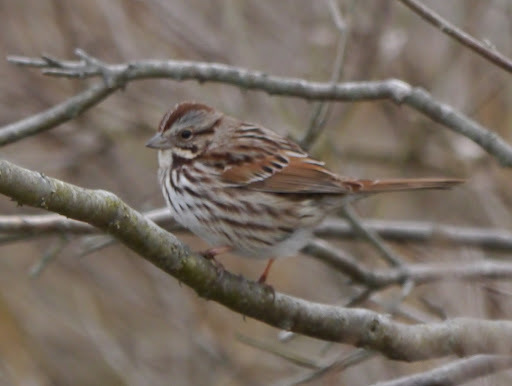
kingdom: Animalia
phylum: Chordata
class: Aves
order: Passeriformes
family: Passerellidae
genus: Melospiza
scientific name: Melospiza melodia
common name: Song sparrow
